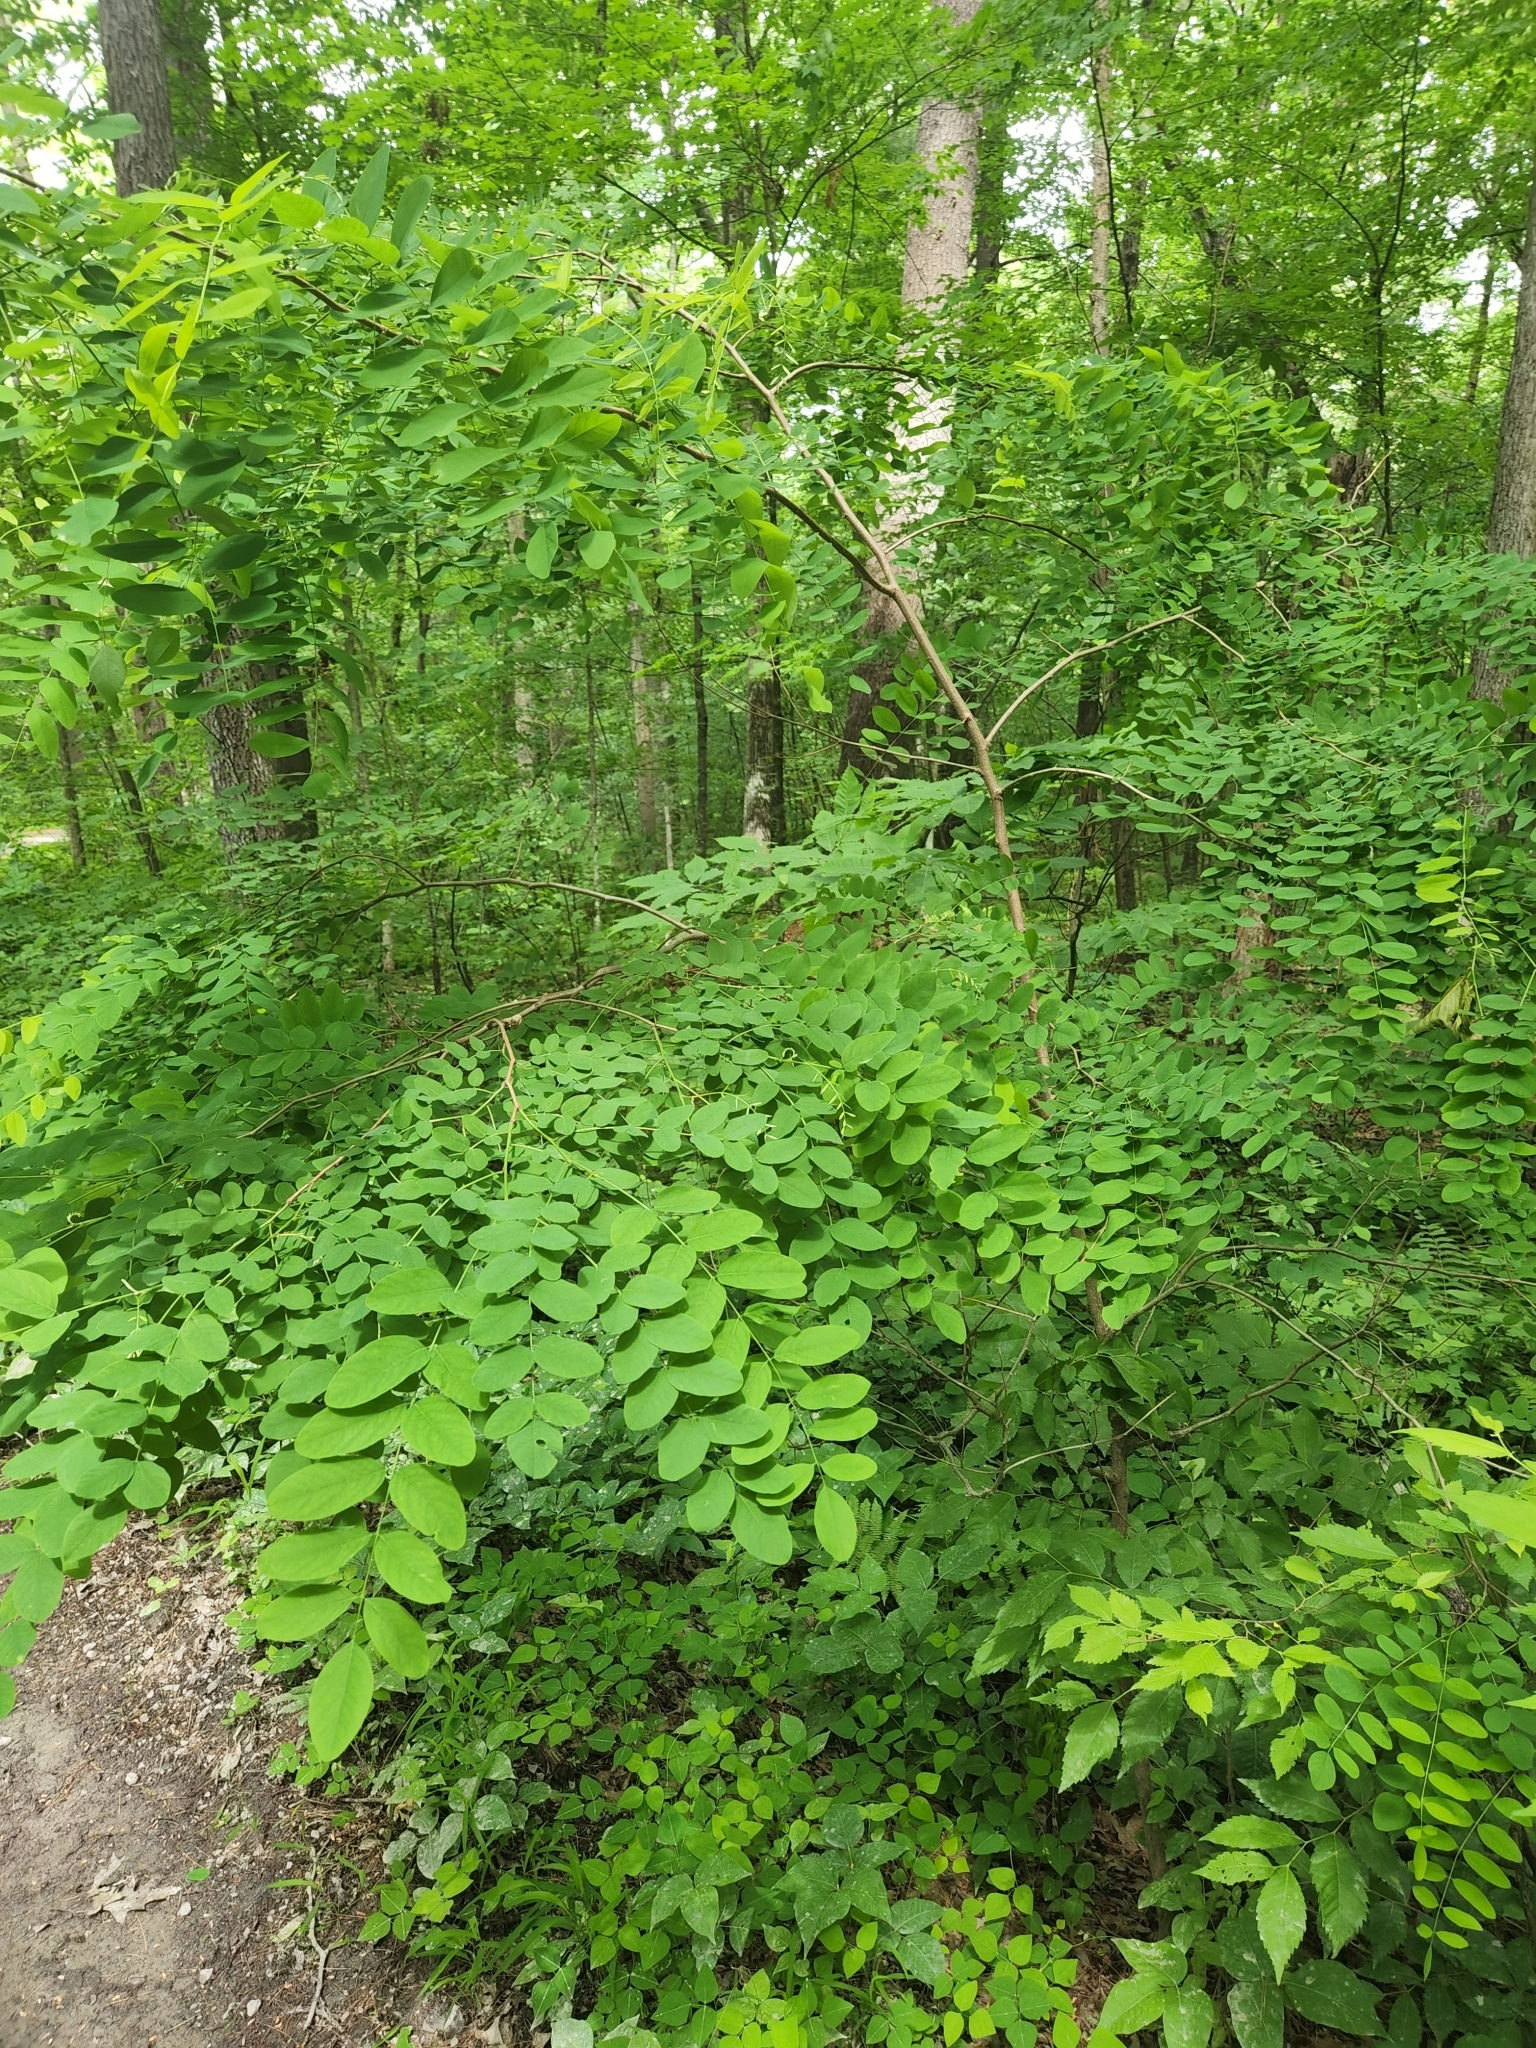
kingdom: Plantae
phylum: Tracheophyta
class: Magnoliopsida
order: Fabales
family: Fabaceae
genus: Robinia
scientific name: Robinia pseudoacacia
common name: Black locust
